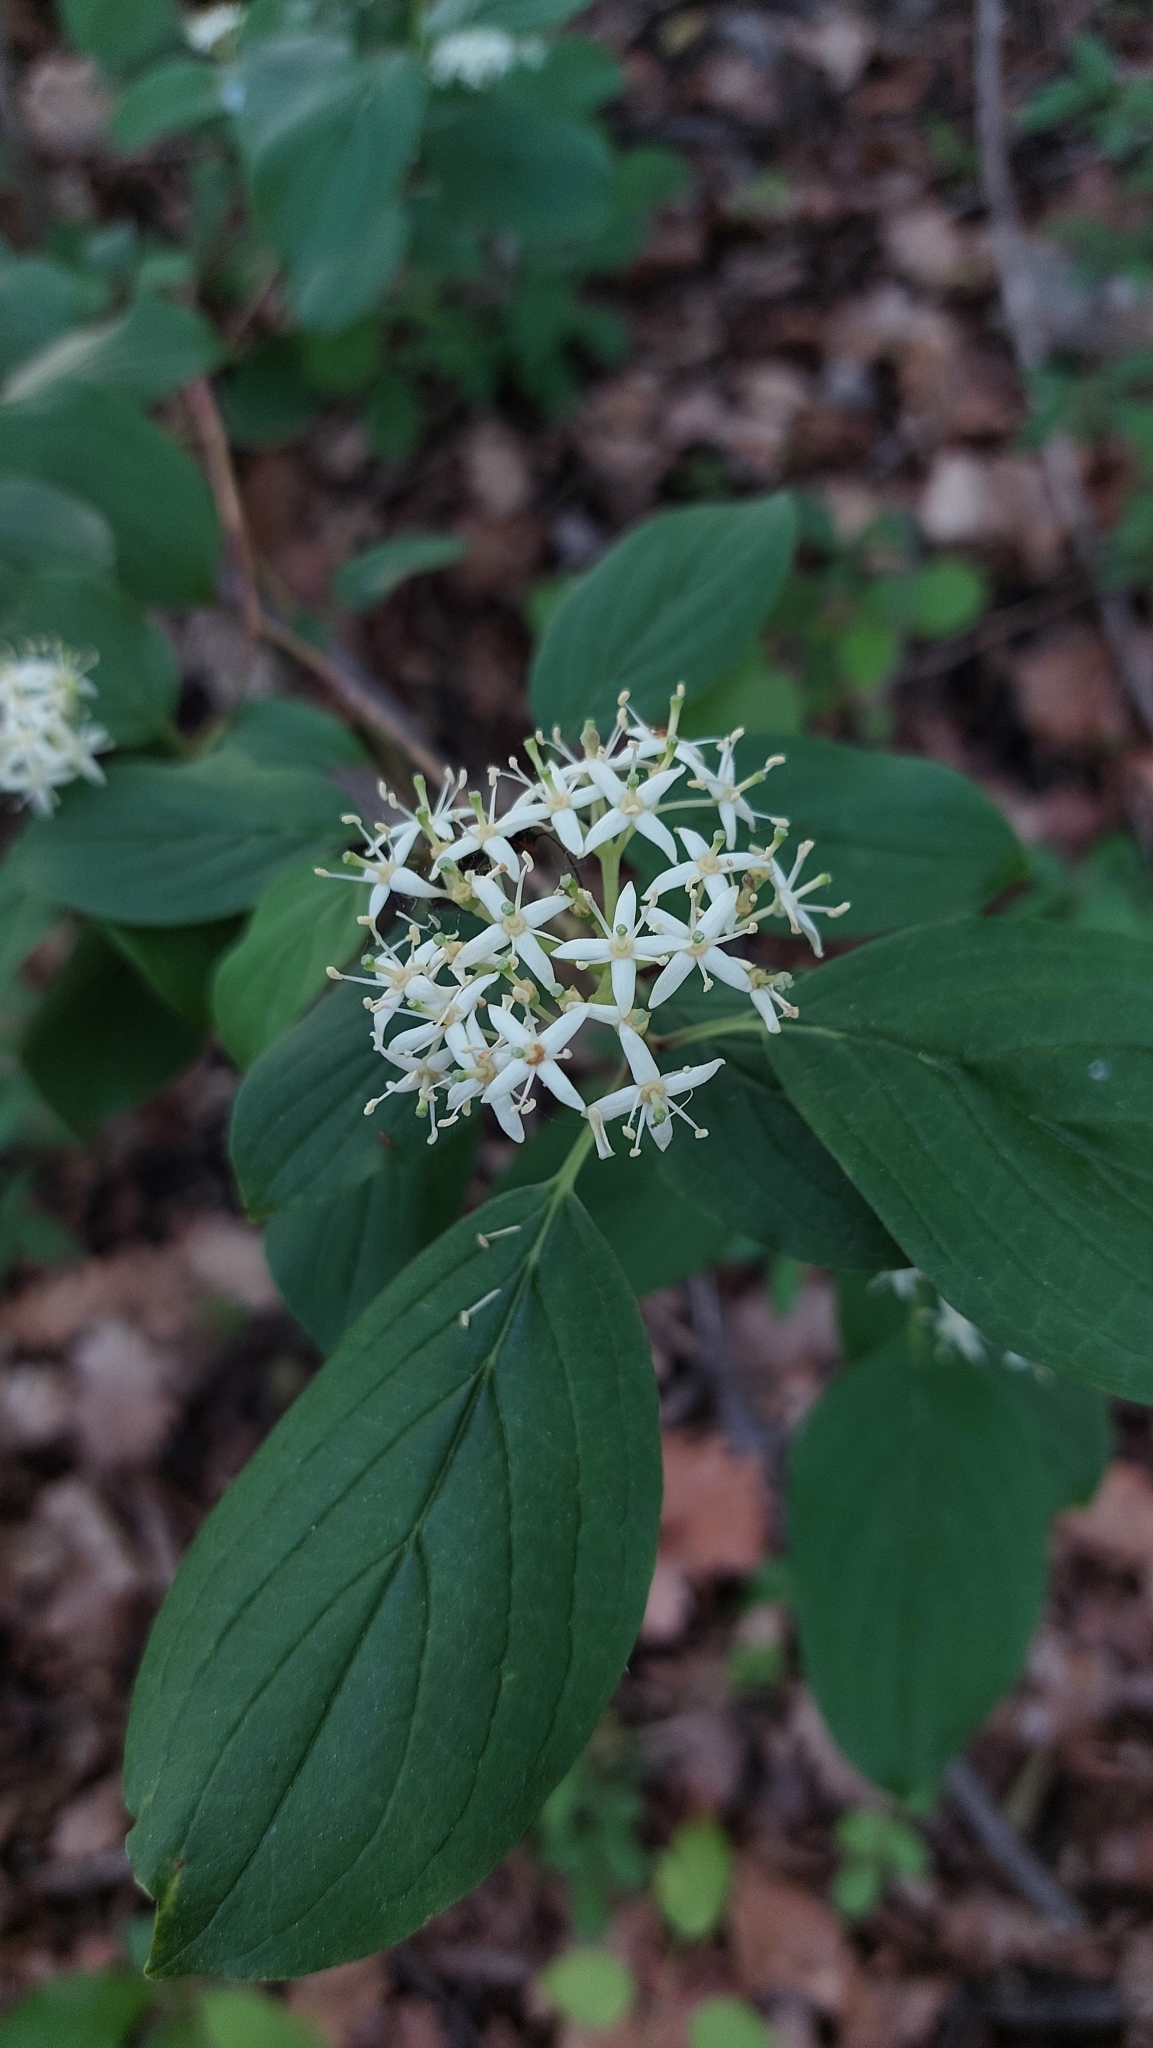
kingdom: Plantae
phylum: Tracheophyta
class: Magnoliopsida
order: Cornales
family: Cornaceae
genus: Cornus
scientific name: Cornus sanguinea
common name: Dogwood
